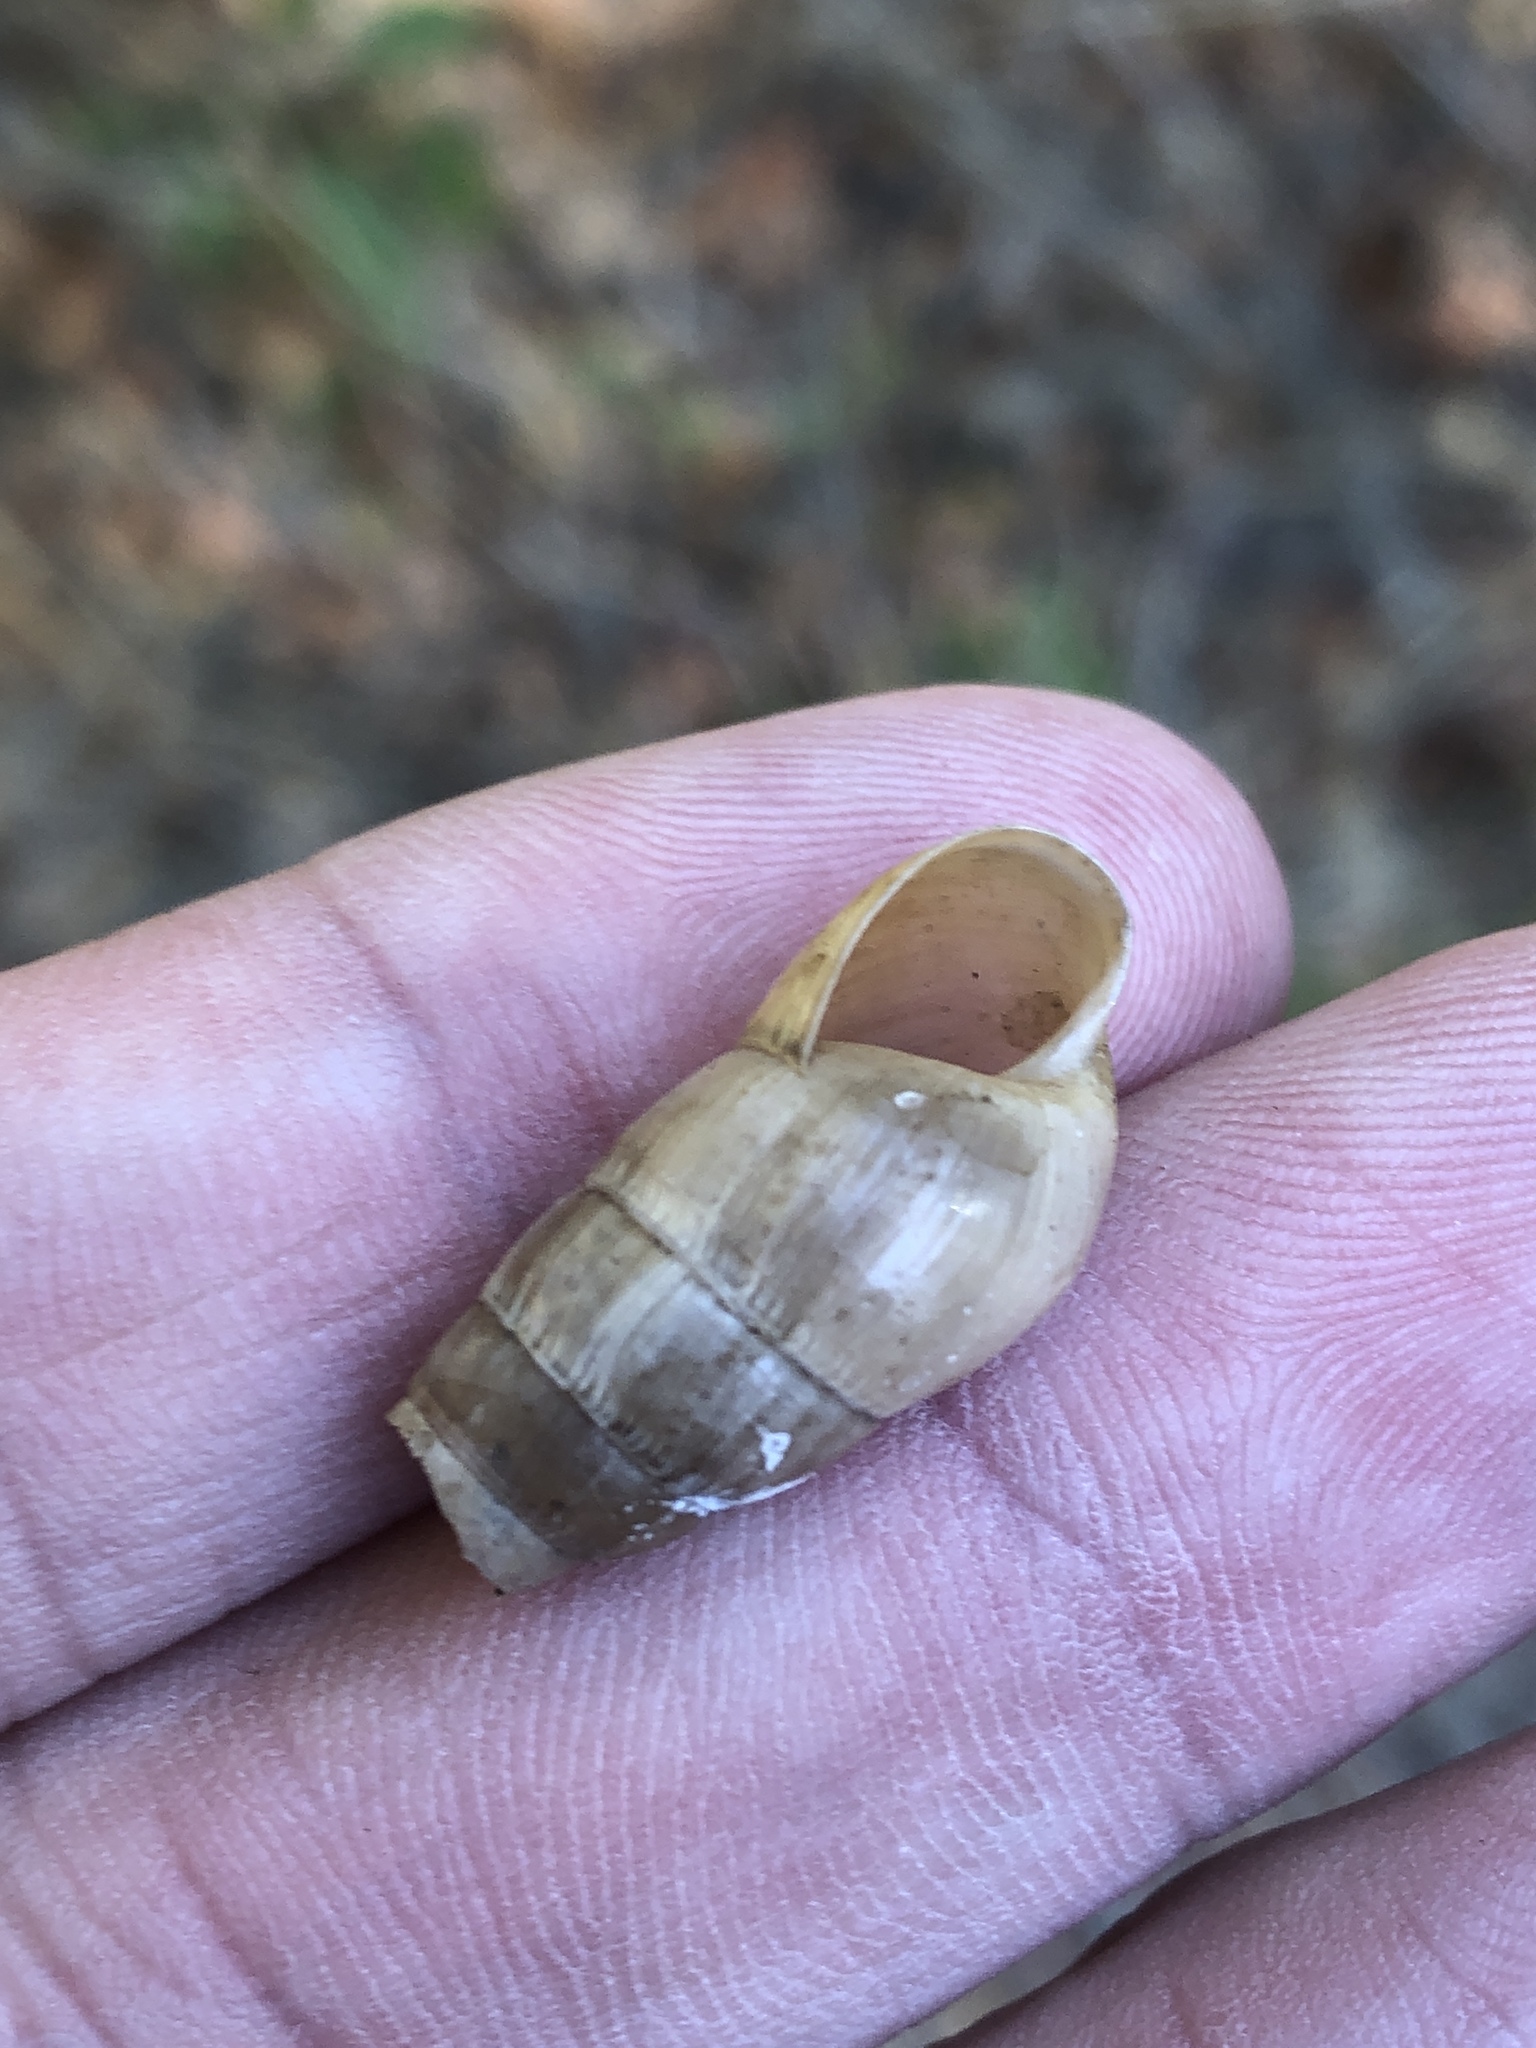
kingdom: Animalia
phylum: Mollusca
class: Gastropoda
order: Stylommatophora
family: Achatinidae
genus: Rumina
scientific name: Rumina decollata
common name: Decollate snail
